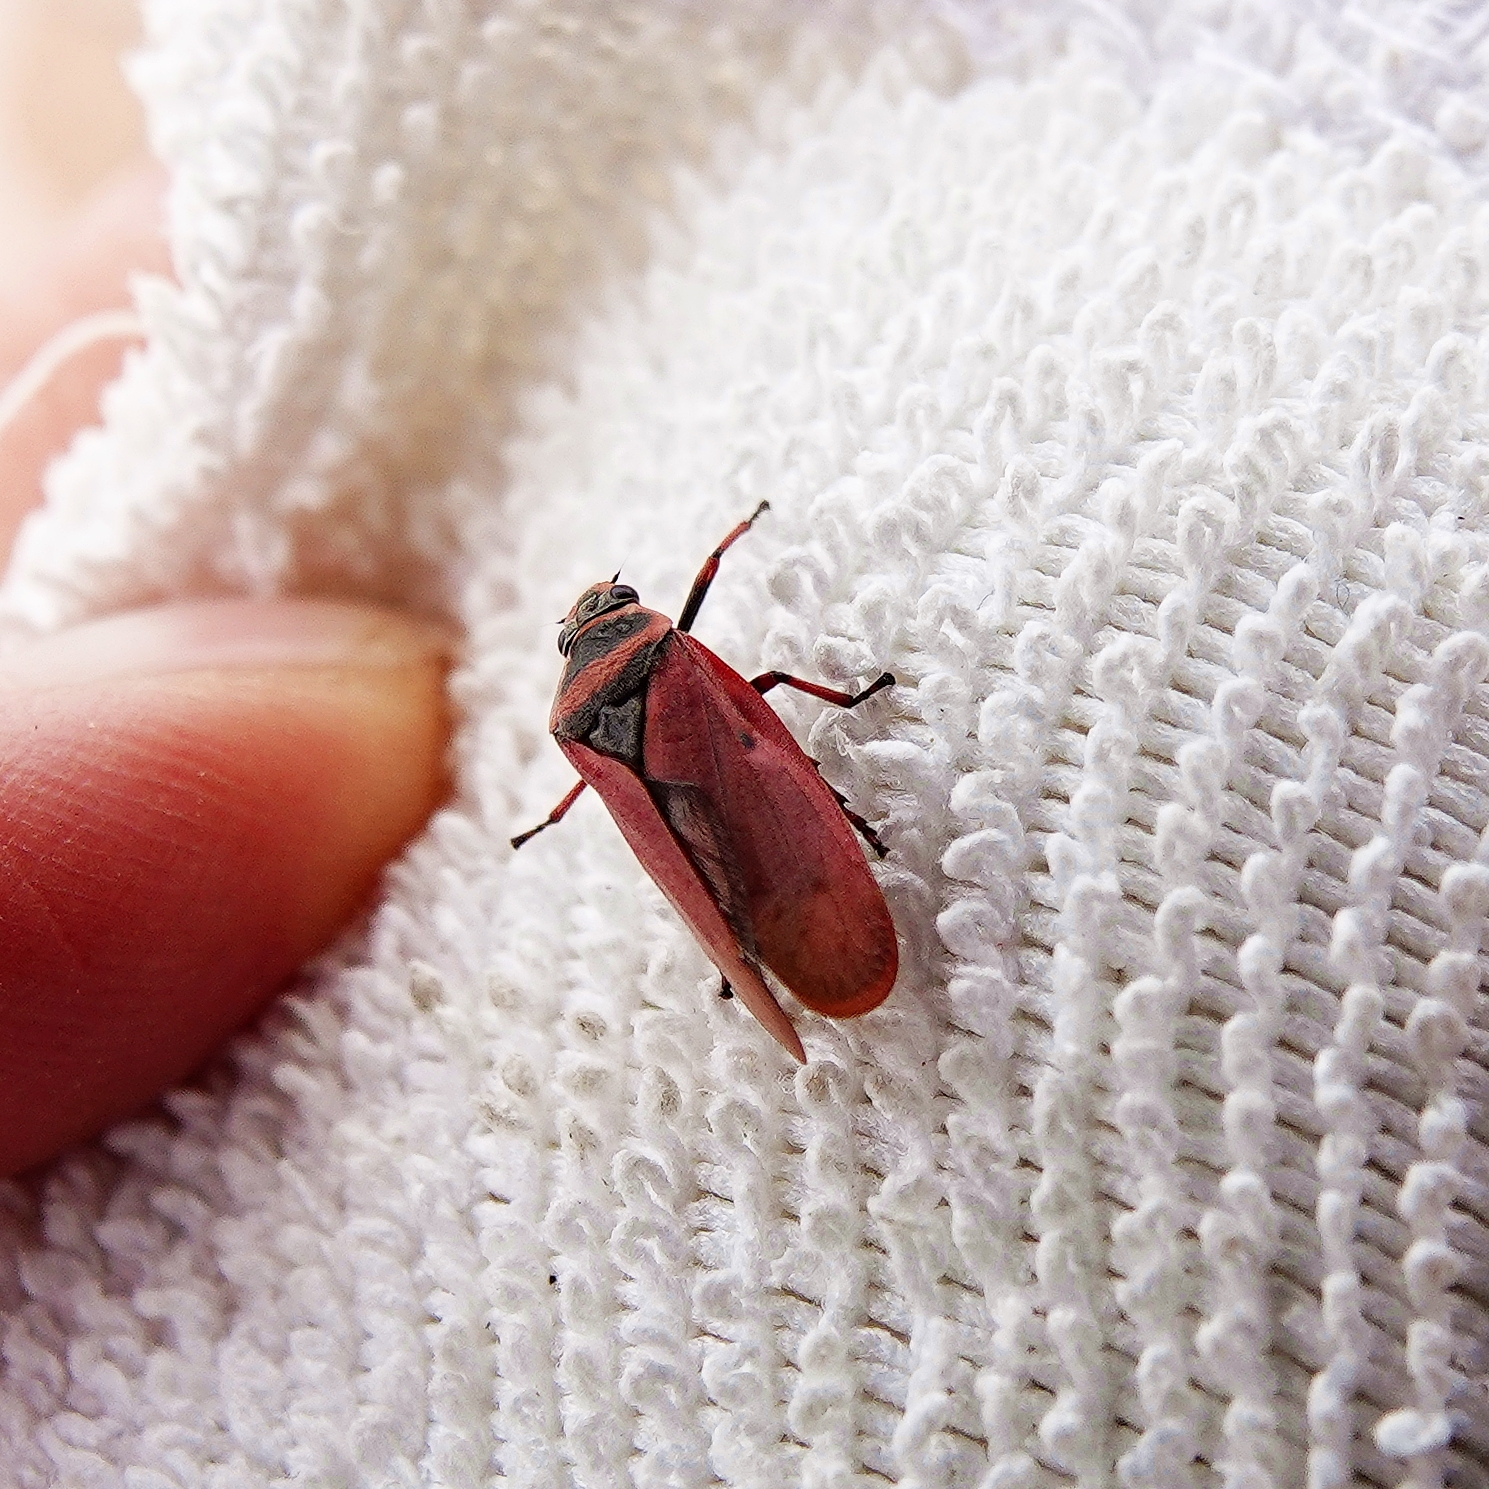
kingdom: Animalia
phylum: Arthropoda
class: Insecta
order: Hemiptera
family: Cercopidae
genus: Locris
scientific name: Locris vicina
